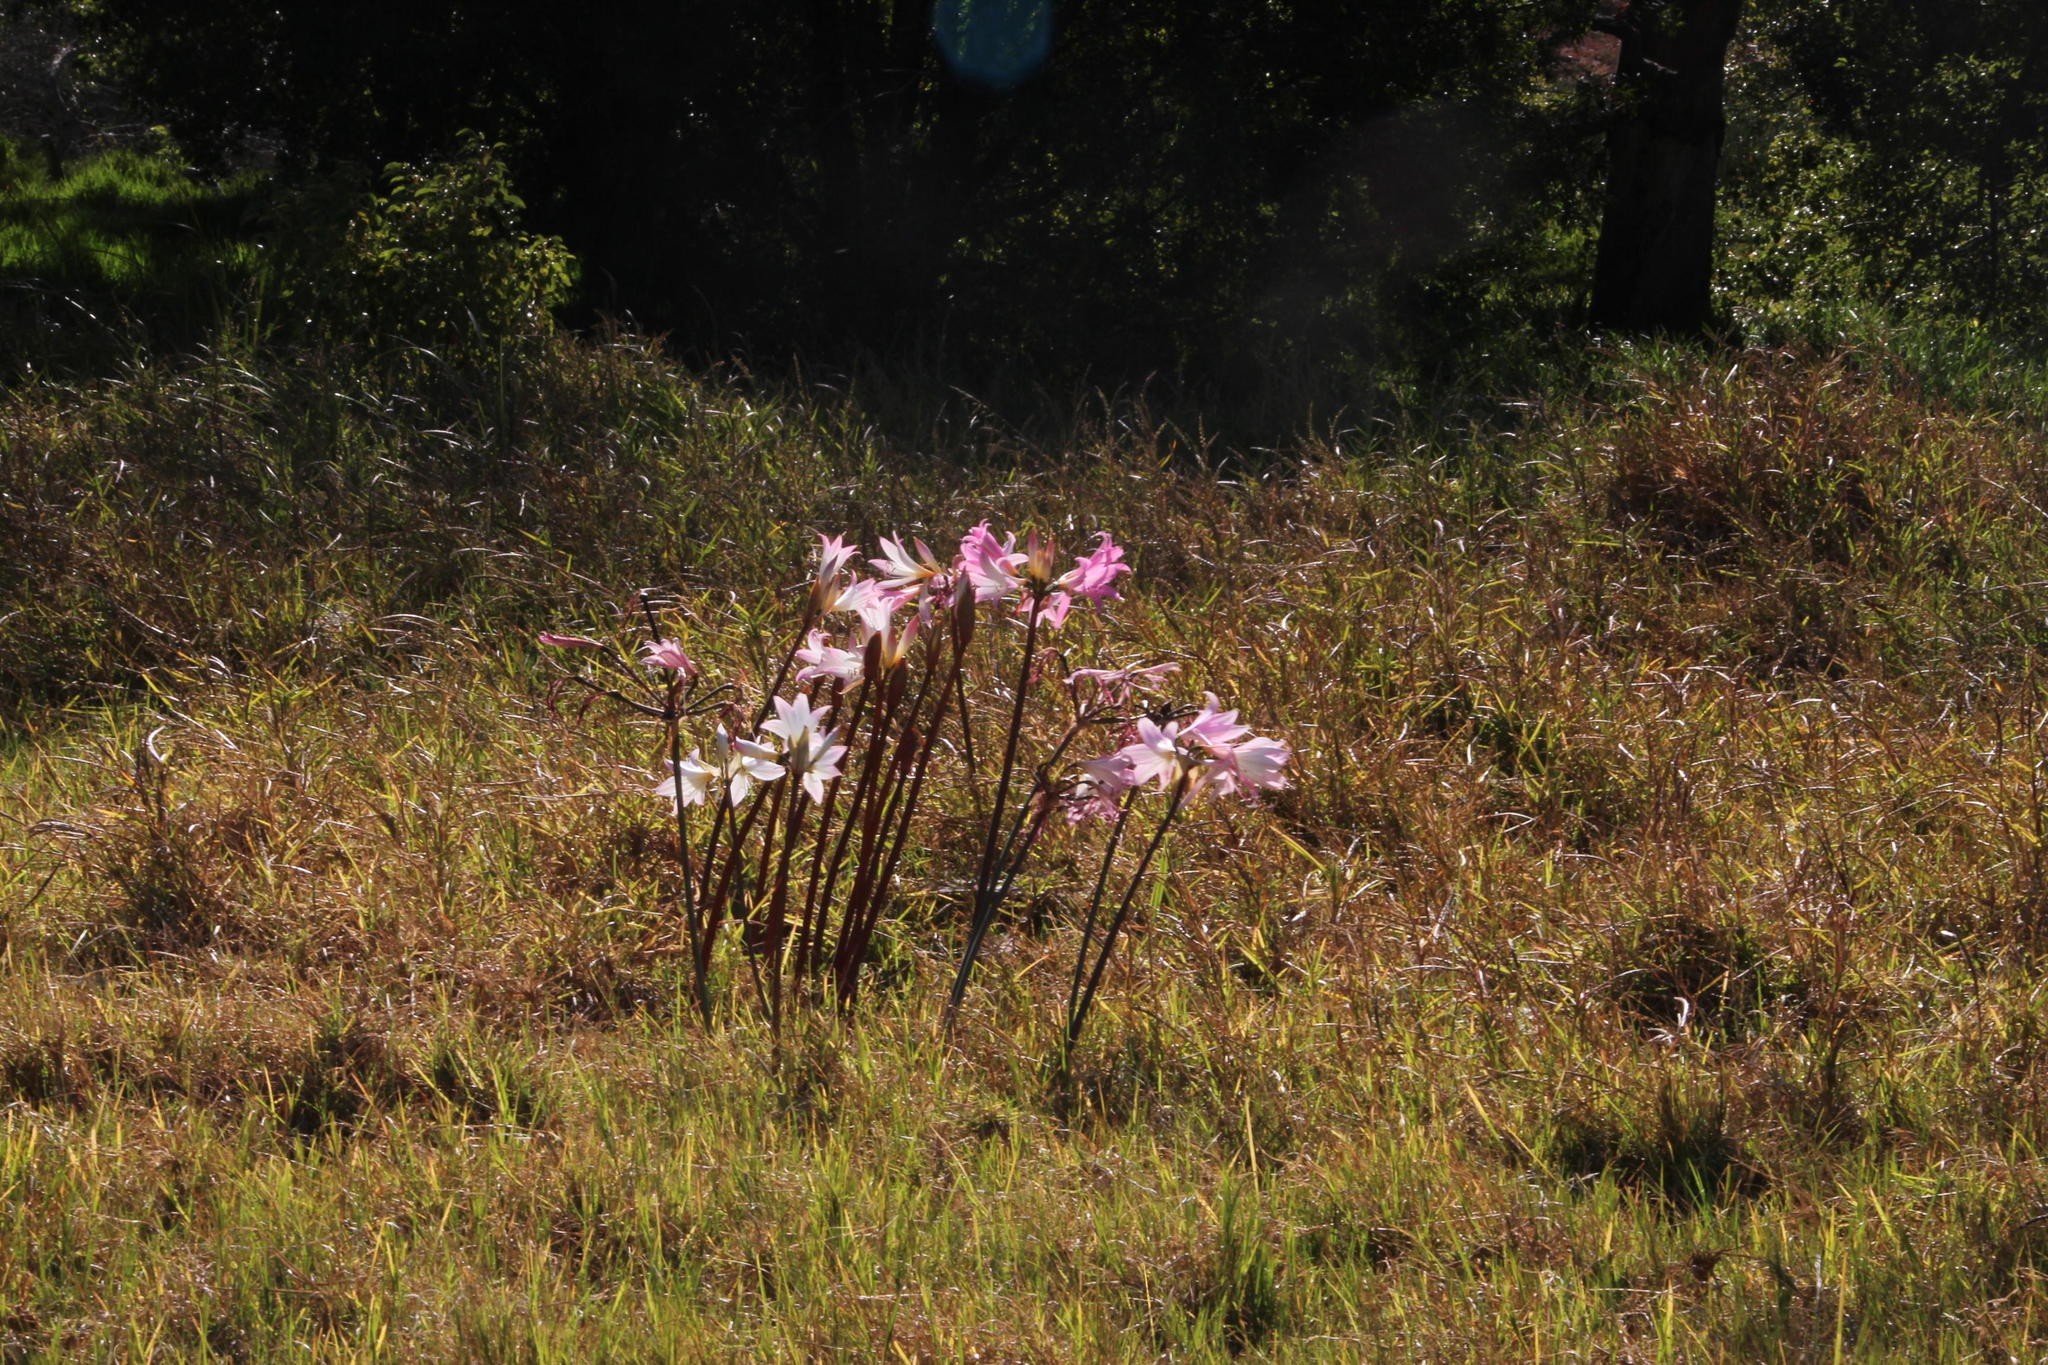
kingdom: Plantae
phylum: Tracheophyta
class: Liliopsida
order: Asparagales
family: Amaryllidaceae
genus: Amaryllis
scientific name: Amaryllis belladonna
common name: Jersey lily
